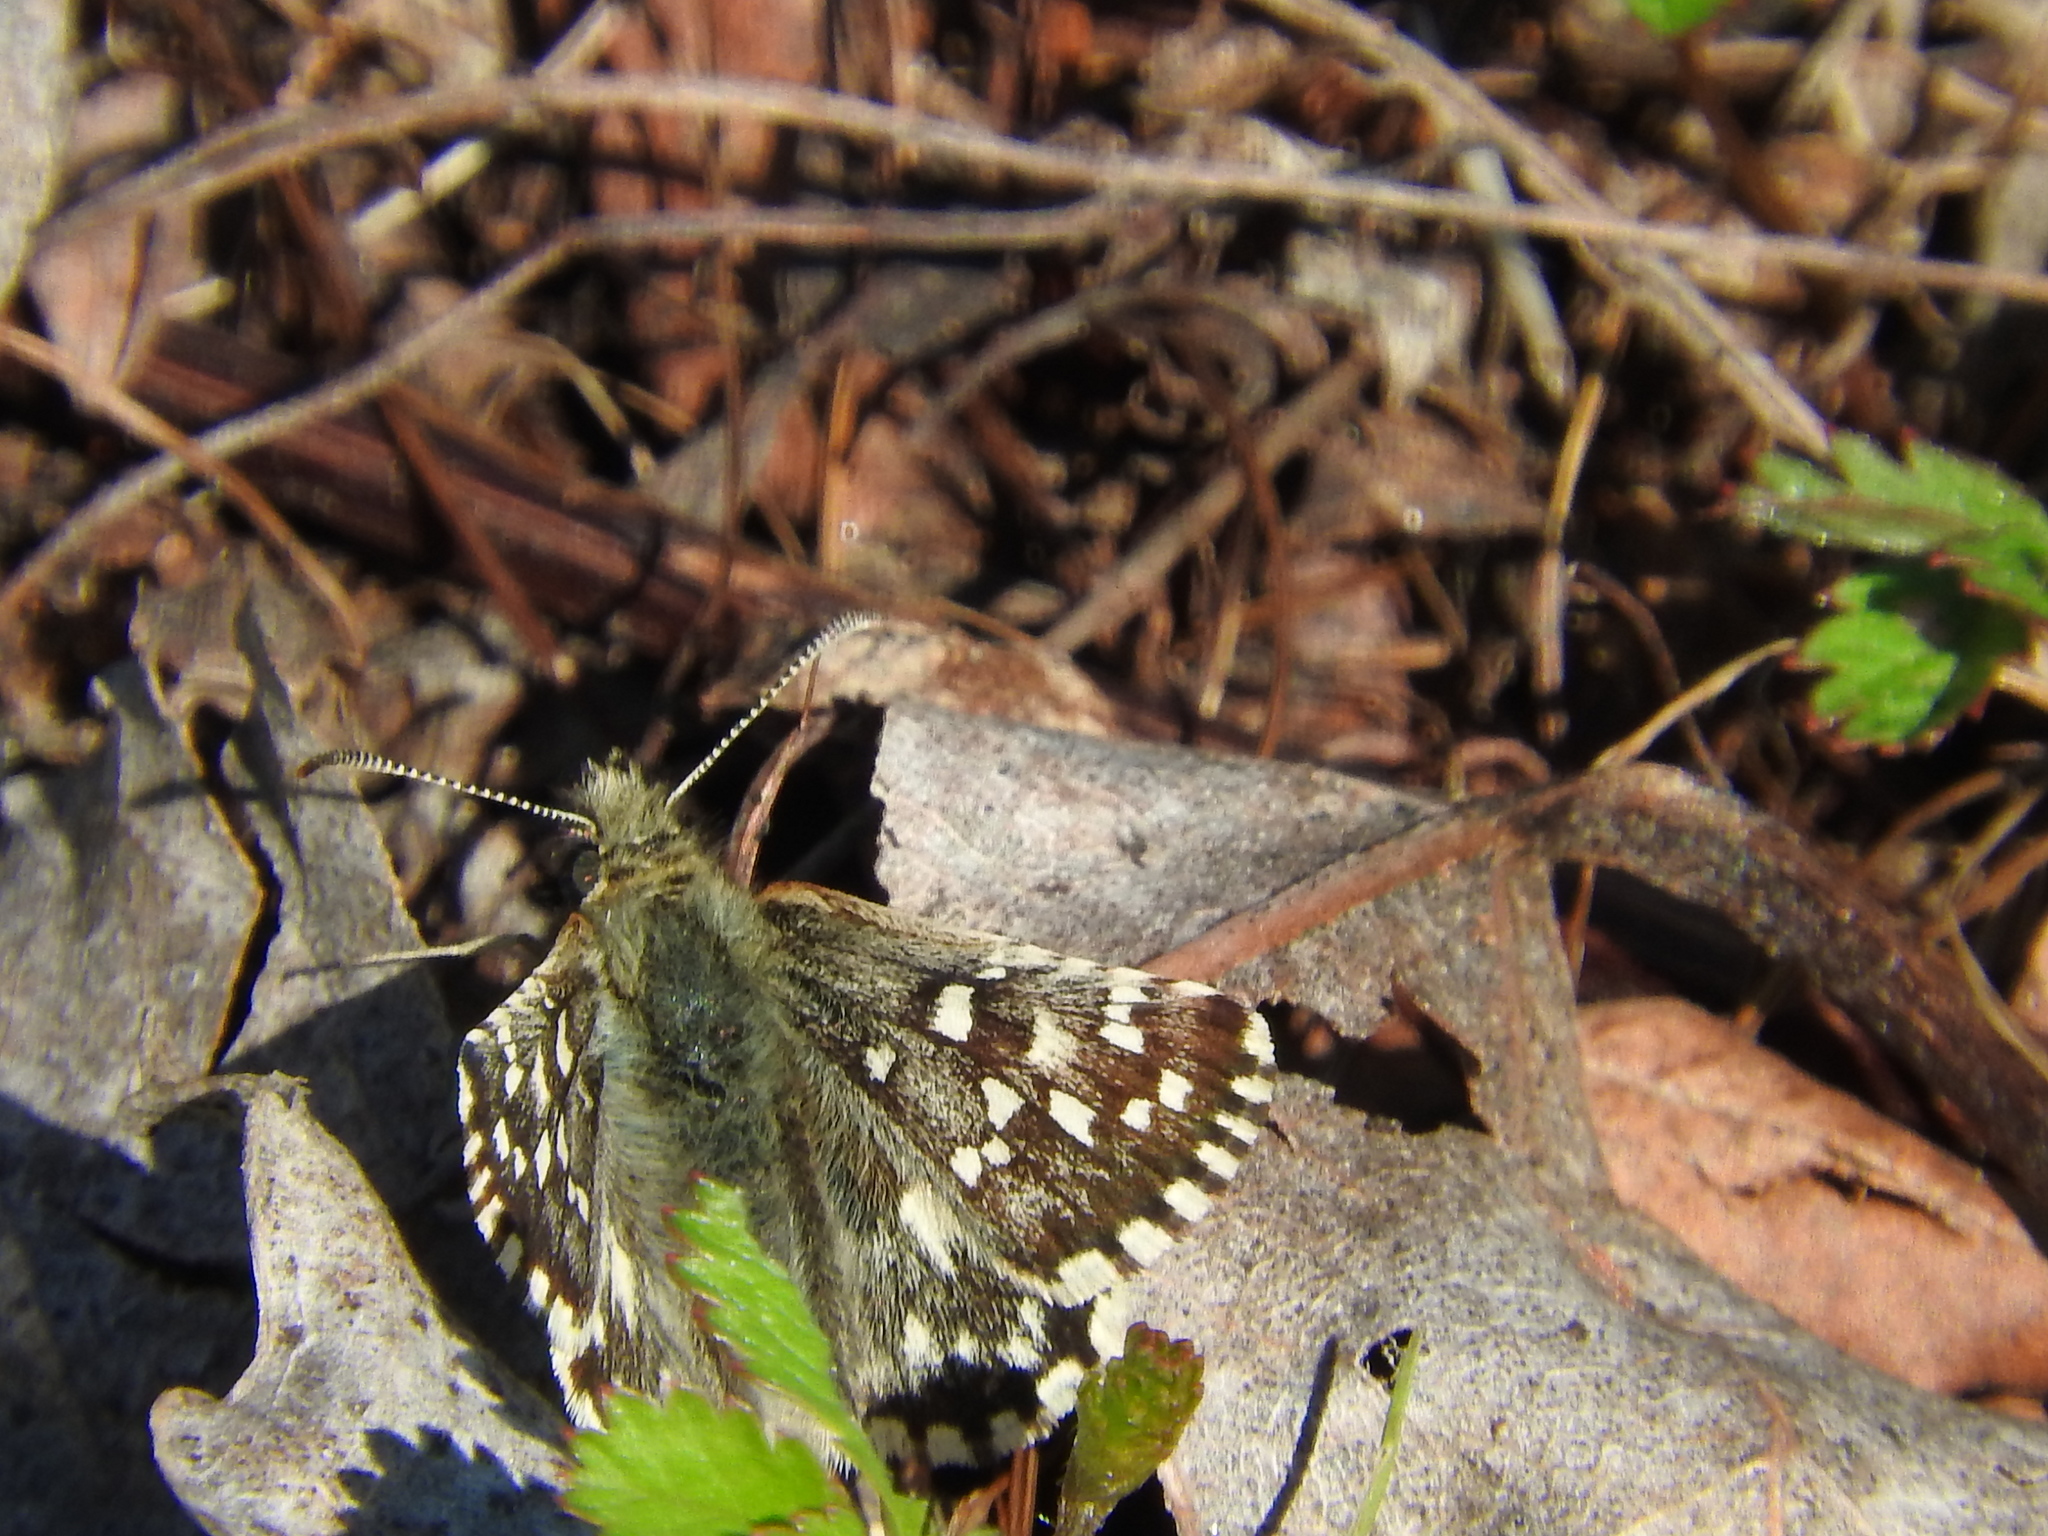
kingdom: Animalia
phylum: Arthropoda
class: Insecta
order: Lepidoptera
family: Hesperiidae
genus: Pyrgus
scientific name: Pyrgus malvoides
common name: Southern grizzled skipper
